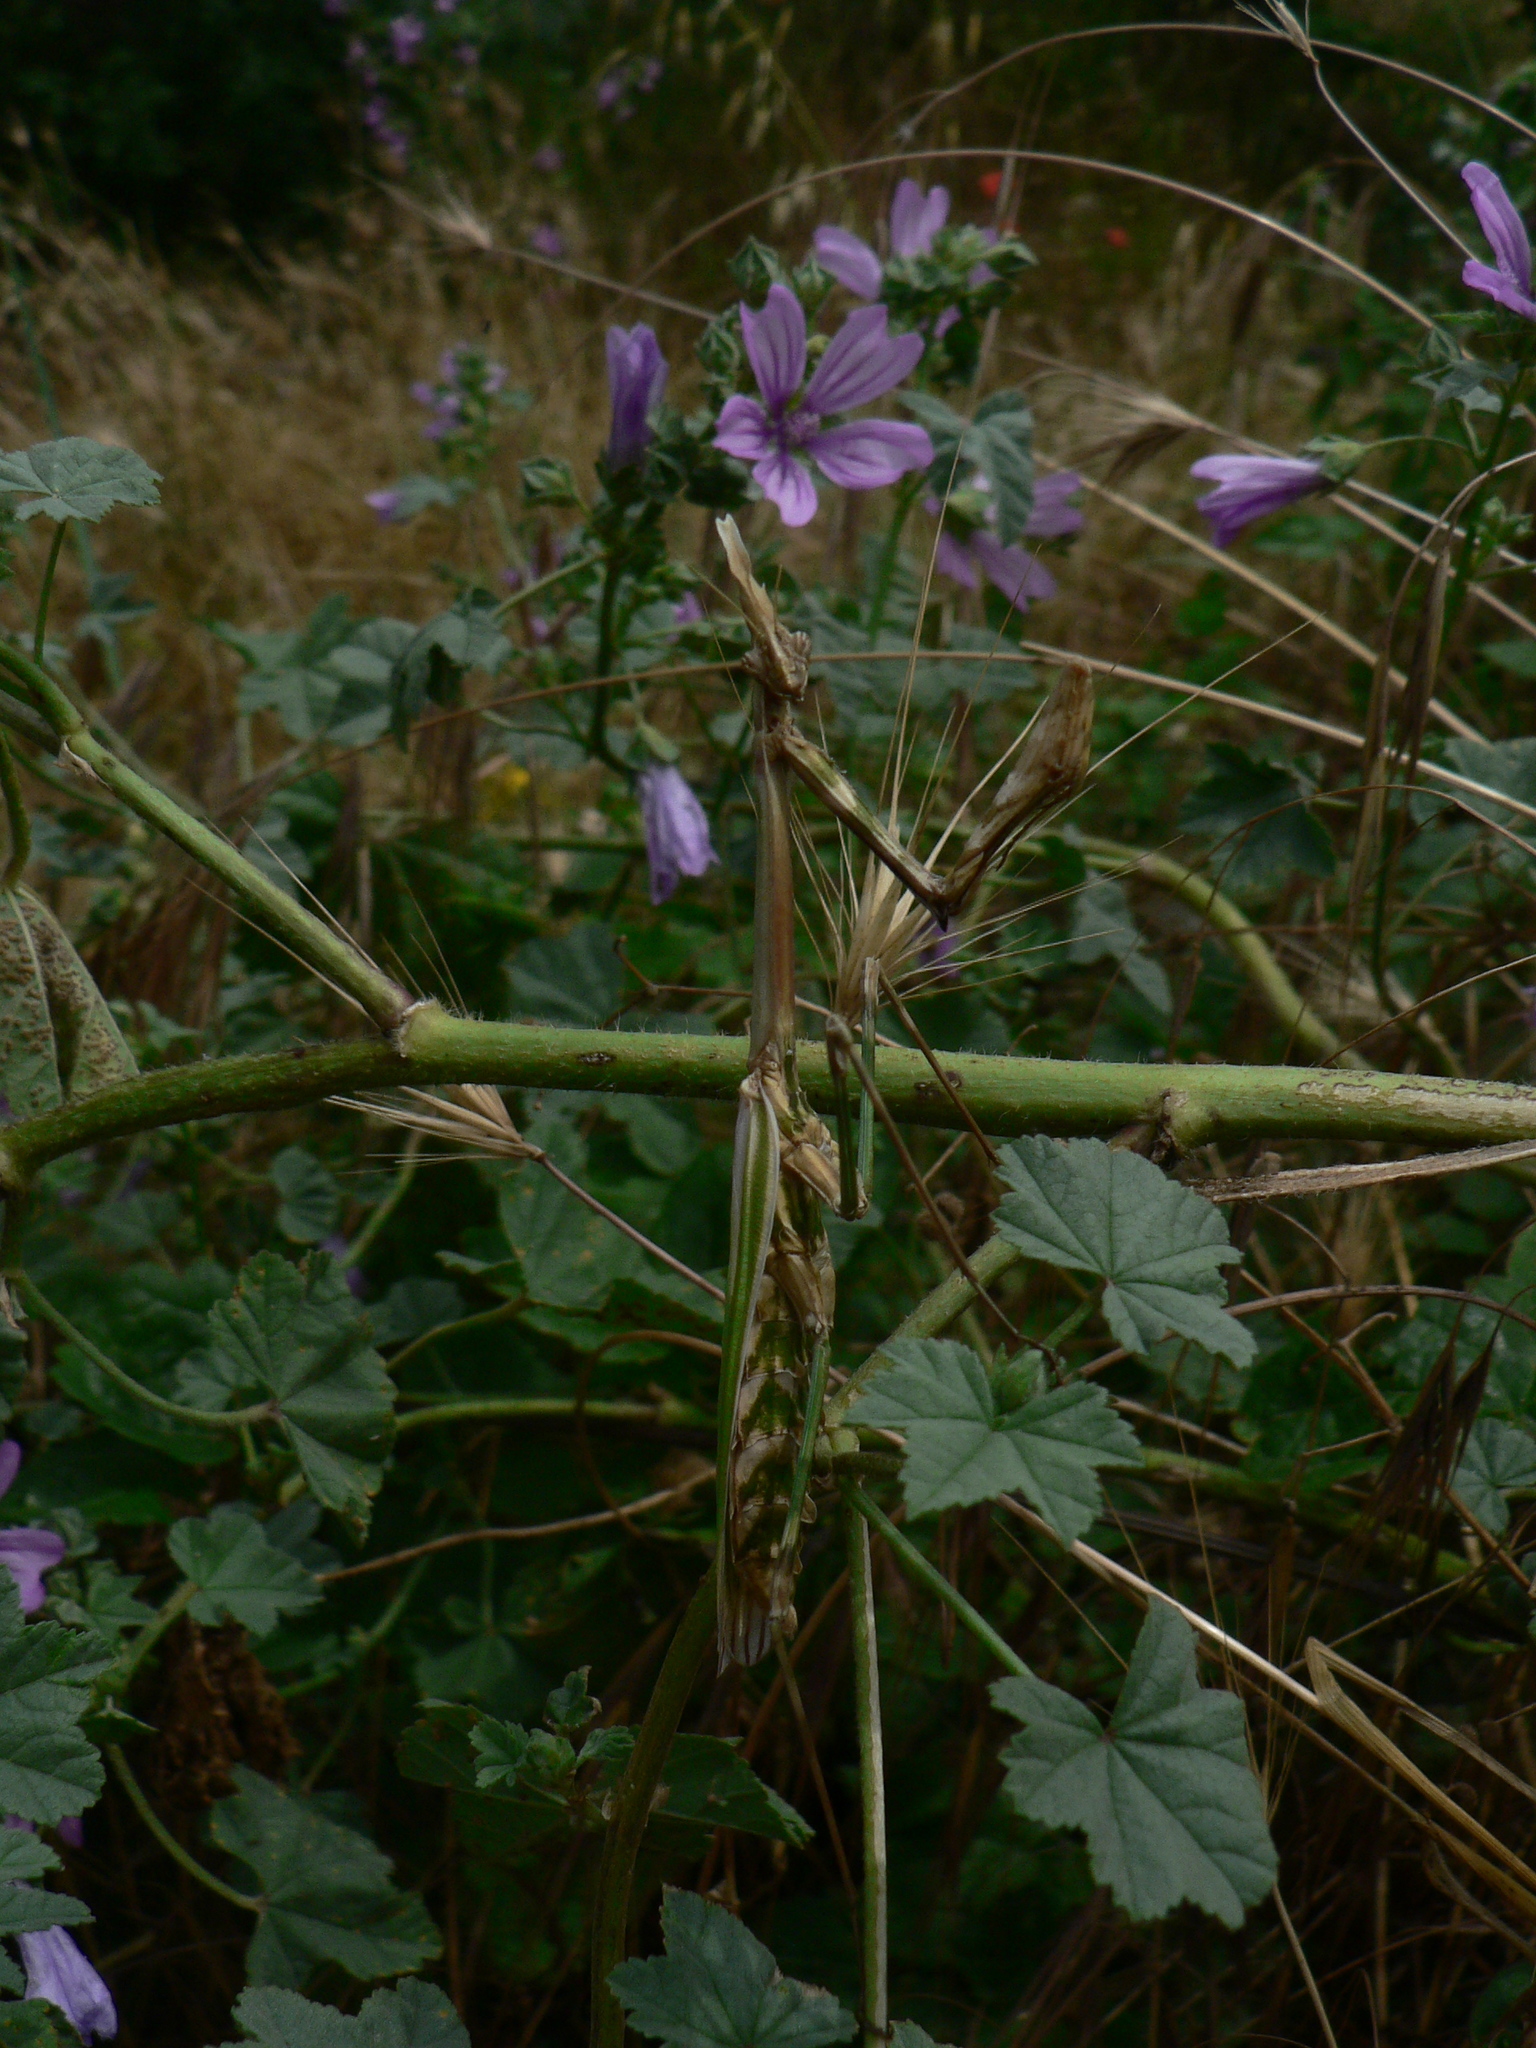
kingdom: Animalia
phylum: Arthropoda
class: Insecta
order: Mantodea
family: Empusidae
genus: Empusa
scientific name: Empusa pennata
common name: Conehead mantis
